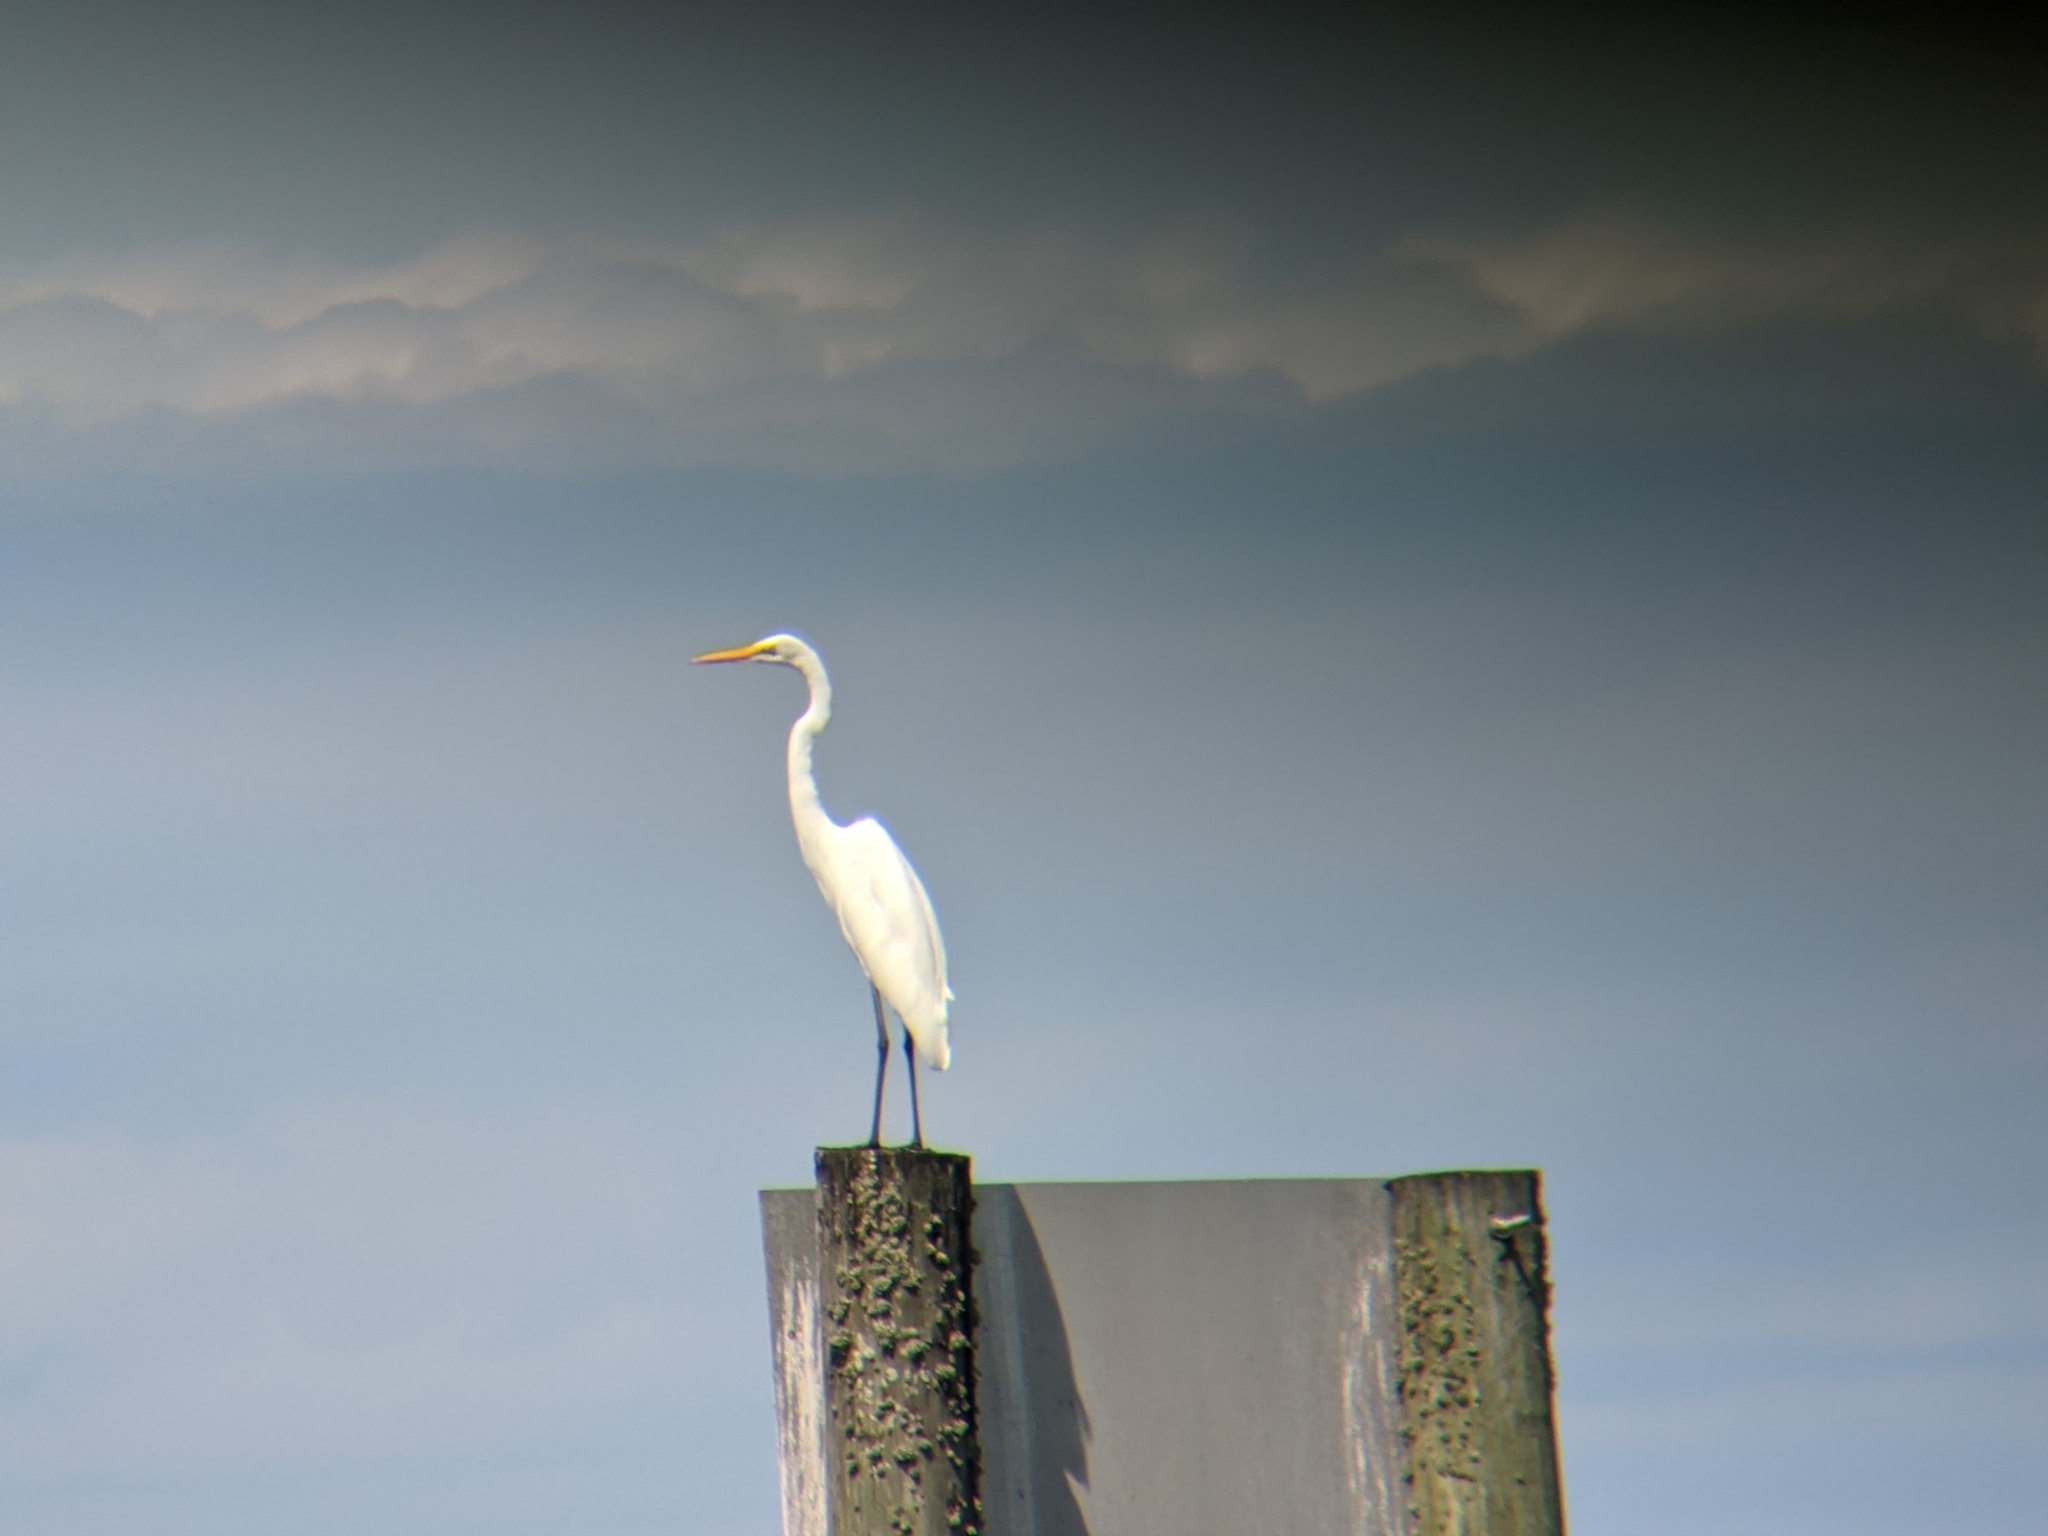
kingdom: Animalia
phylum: Chordata
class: Aves
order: Pelecaniformes
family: Ardeidae
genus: Ardea
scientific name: Ardea alba
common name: Great egret
